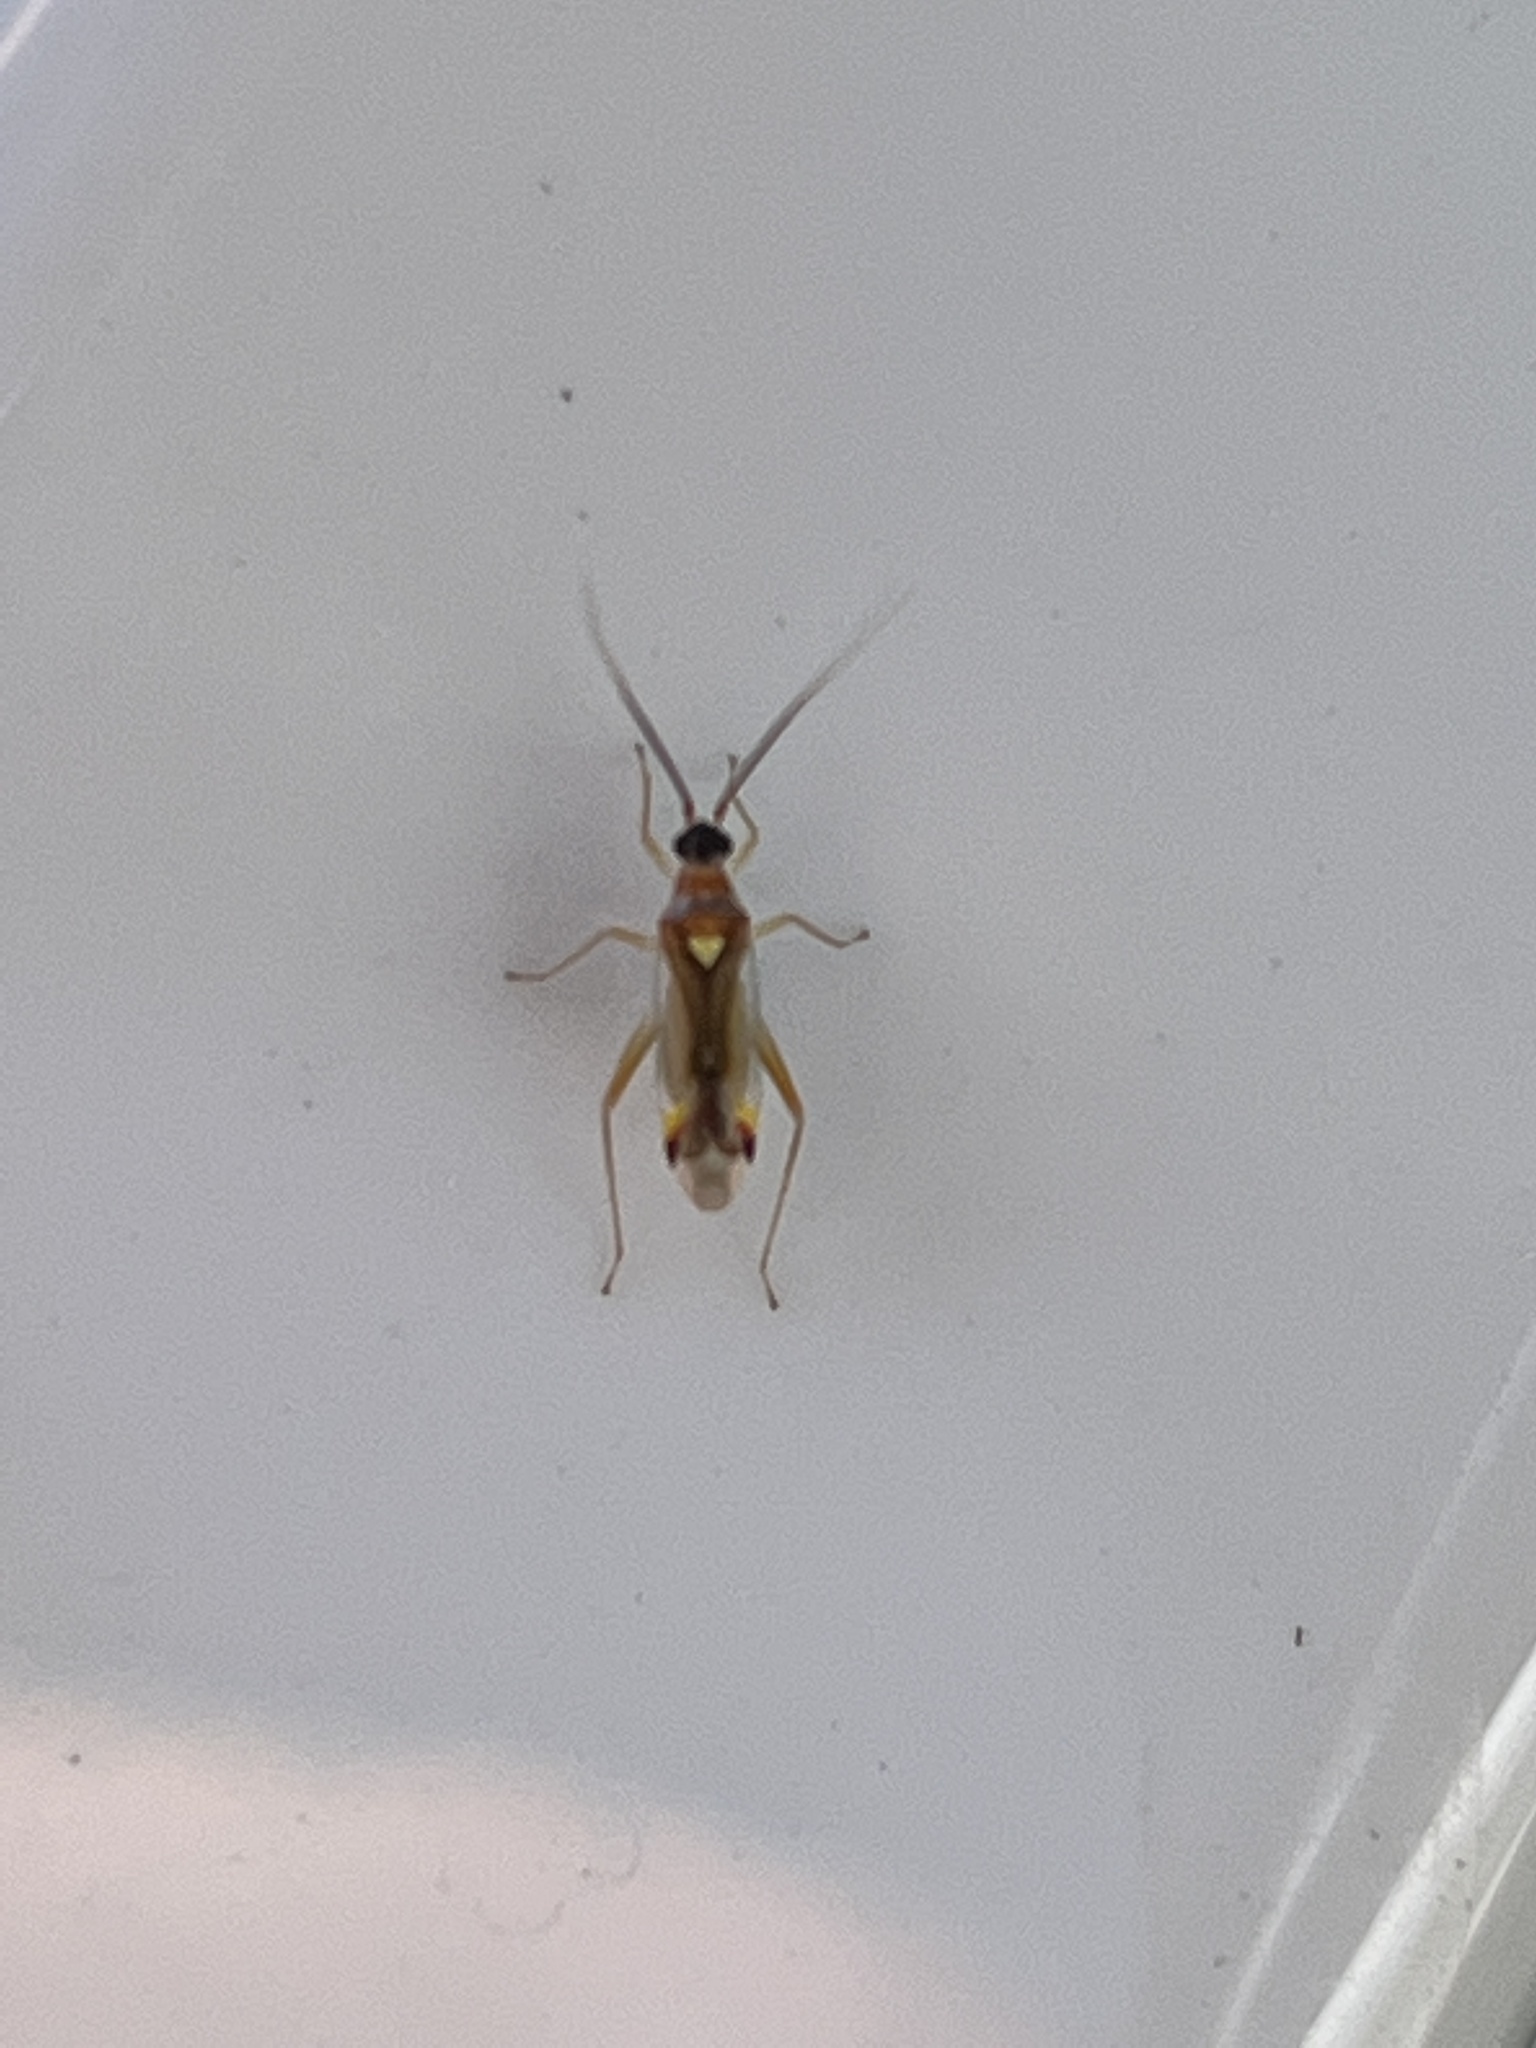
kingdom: Animalia
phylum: Arthropoda
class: Insecta
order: Hemiptera
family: Miridae
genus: Campyloneura
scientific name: Campyloneura virgula
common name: Predatory bug
